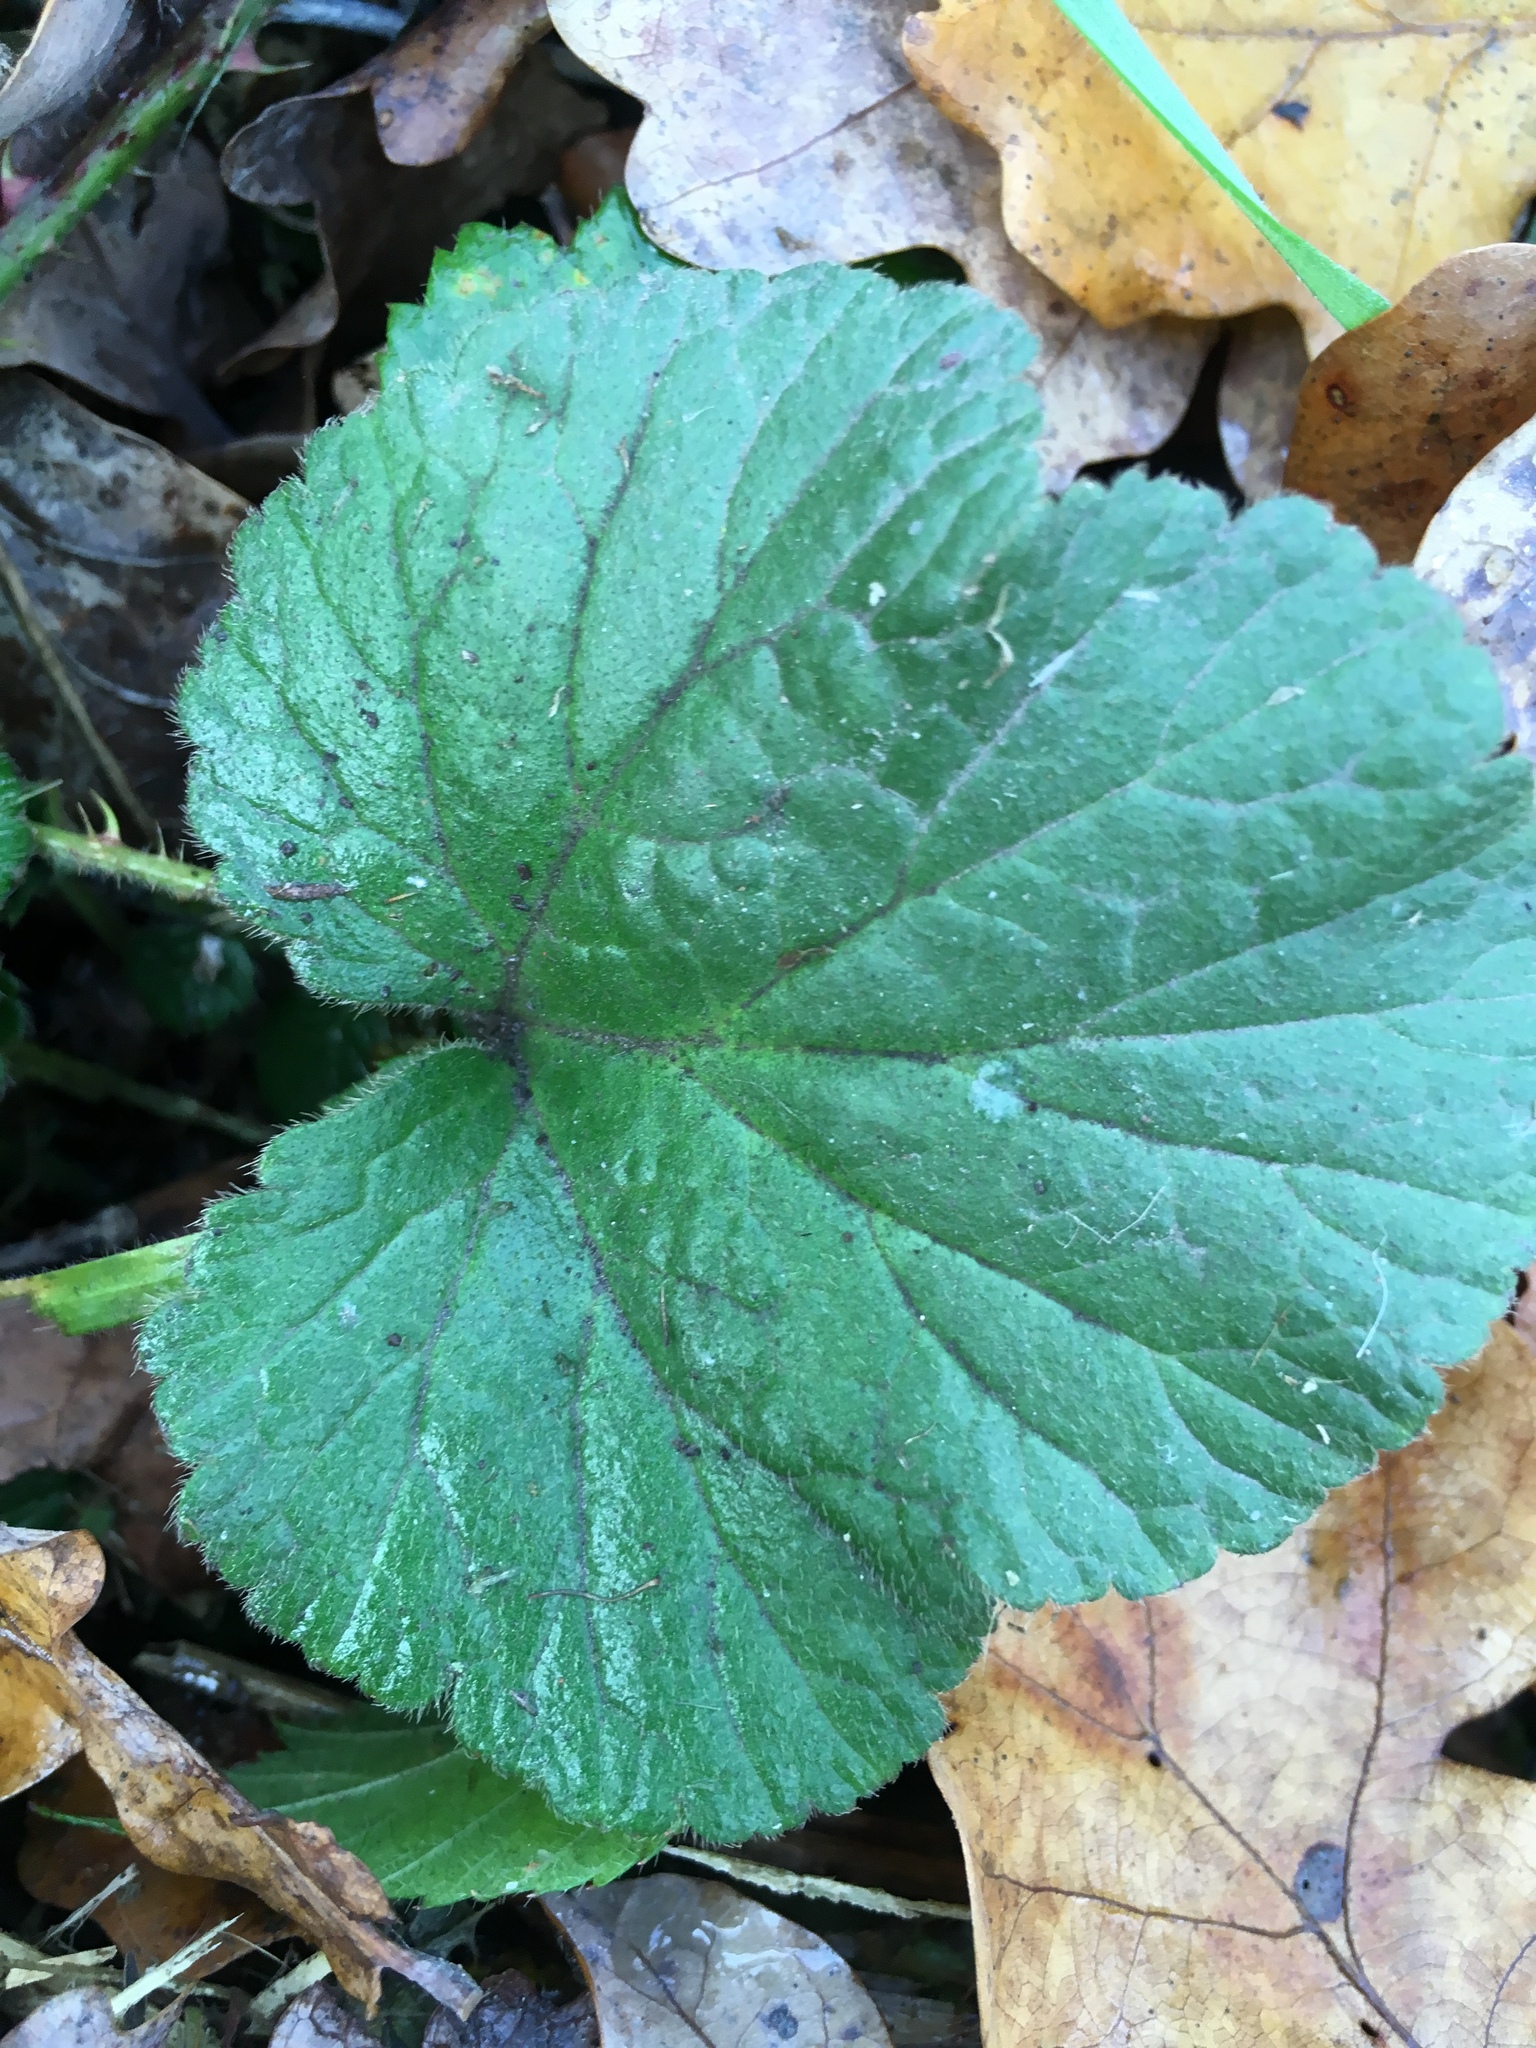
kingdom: Plantae
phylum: Tracheophyta
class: Magnoliopsida
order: Rosales
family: Rosaceae
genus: Geum
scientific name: Geum urbanum
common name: Wood avens
